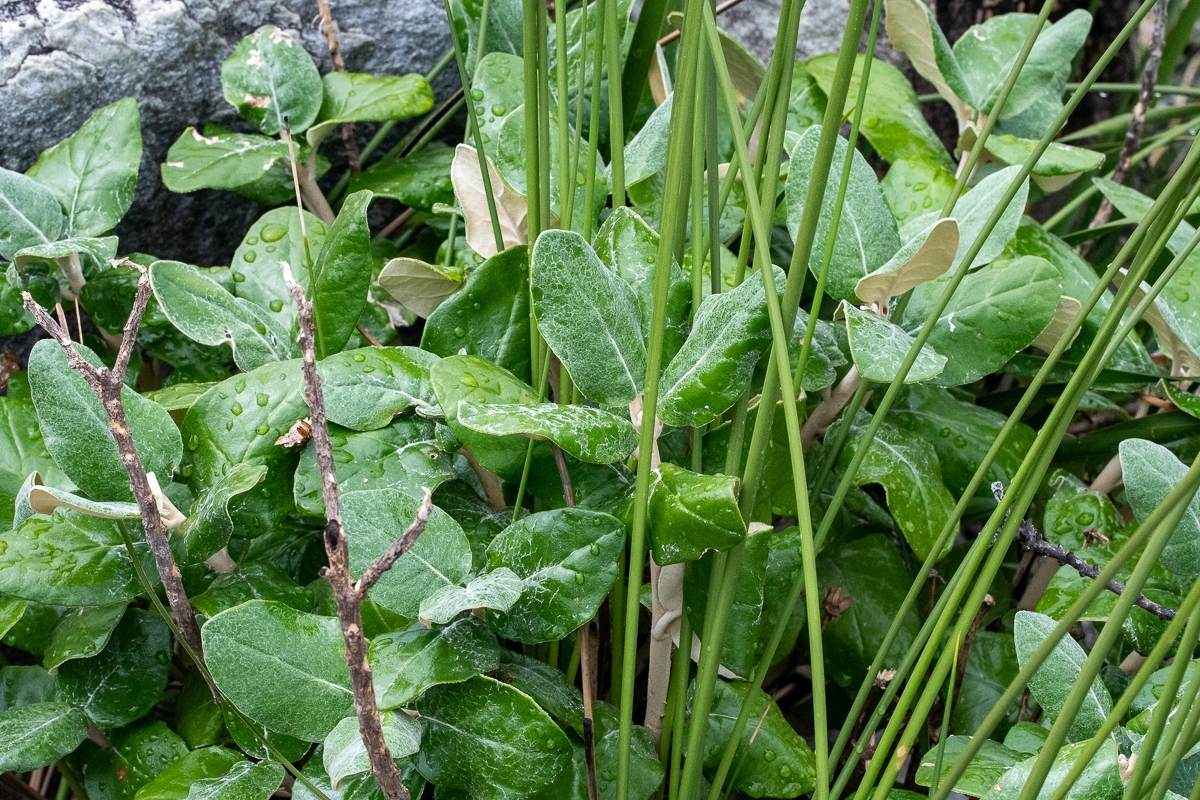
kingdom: Plantae
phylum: Tracheophyta
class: Magnoliopsida
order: Apiales
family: Apiaceae
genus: Hermas
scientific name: Hermas villosa
